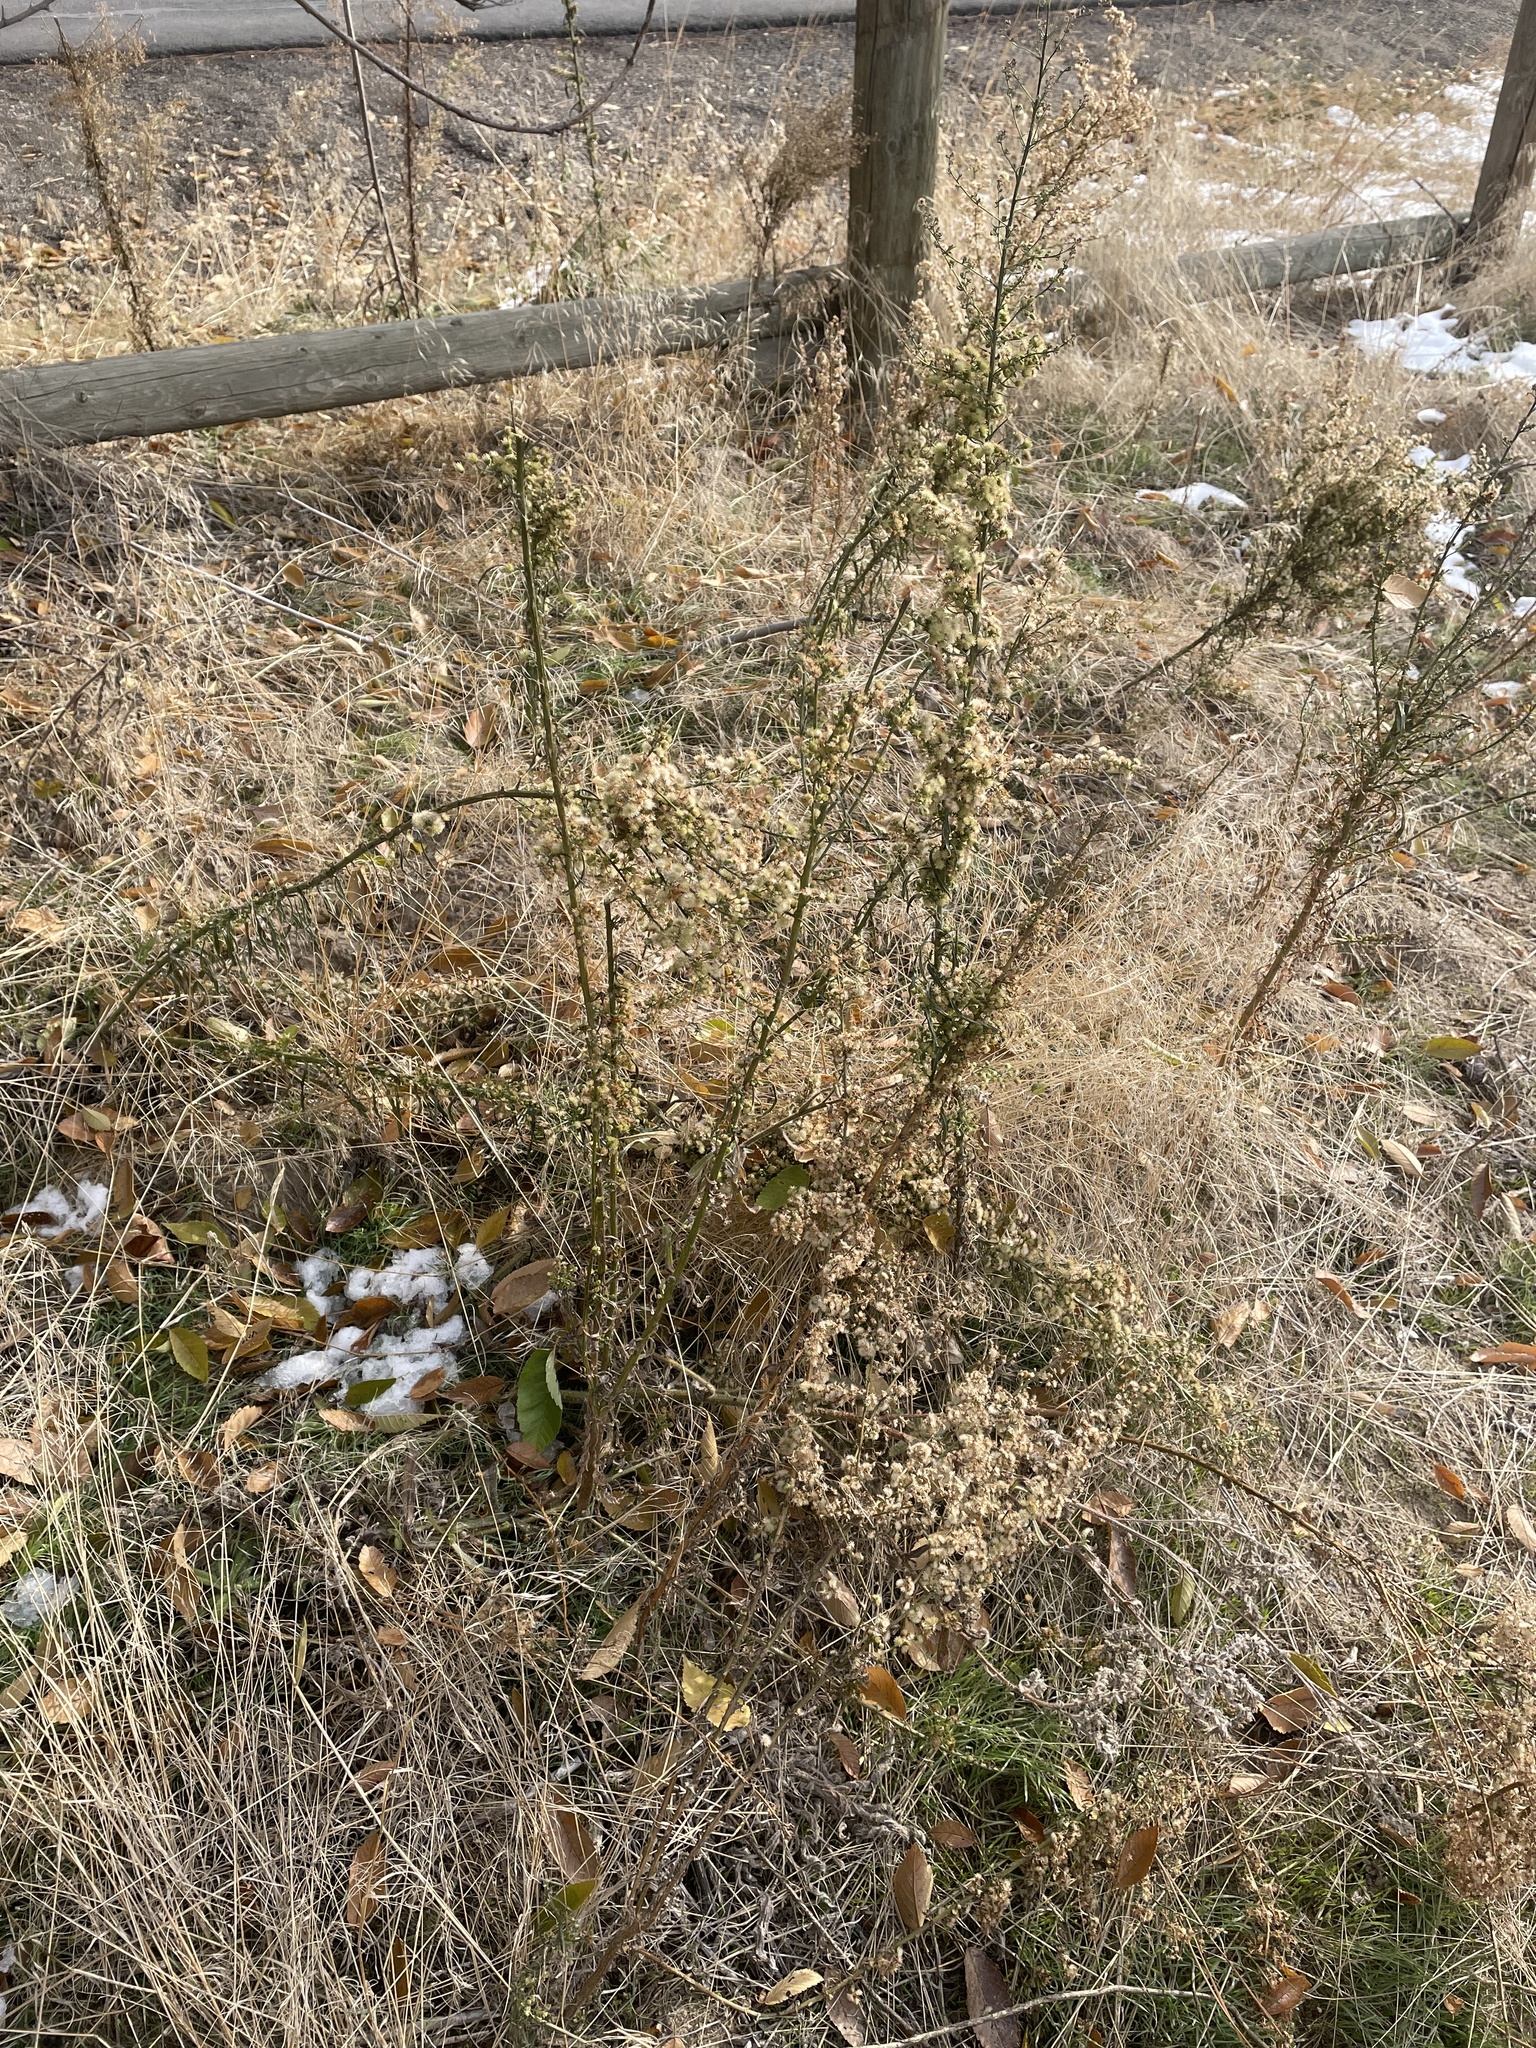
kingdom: Plantae
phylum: Tracheophyta
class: Magnoliopsida
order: Asterales
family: Asteraceae
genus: Erigeron
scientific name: Erigeron canadensis
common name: Canadian fleabane
